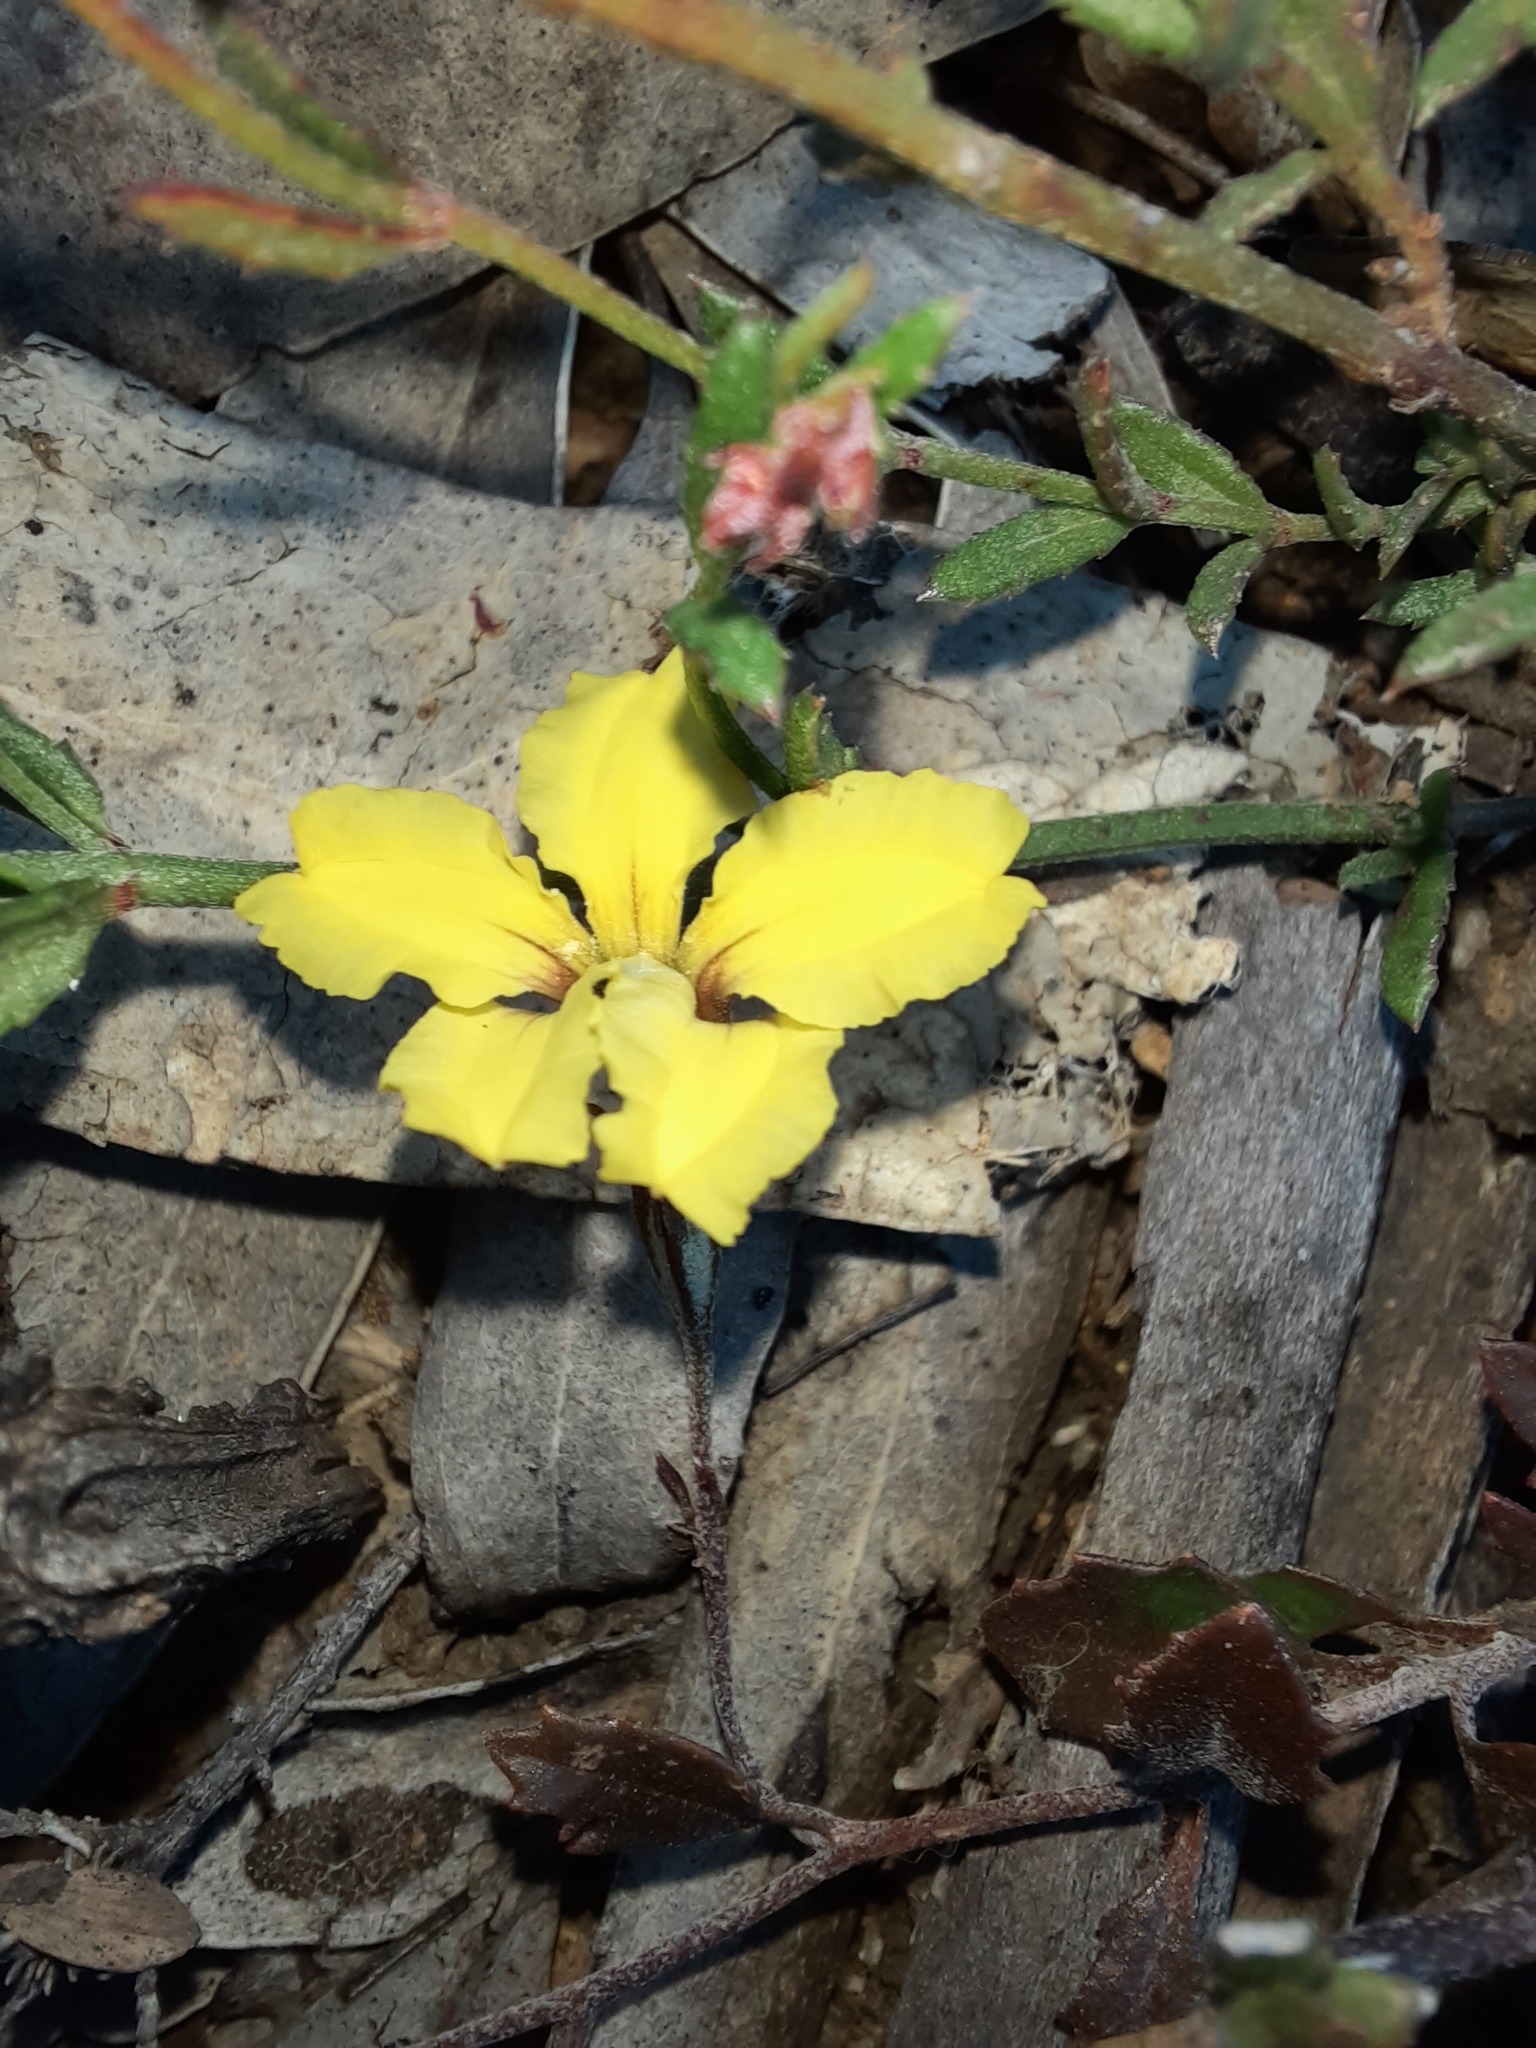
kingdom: Plantae
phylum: Tracheophyta
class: Magnoliopsida
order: Asterales
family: Goodeniaceae
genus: Goodenia
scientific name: Goodenia hederacea
